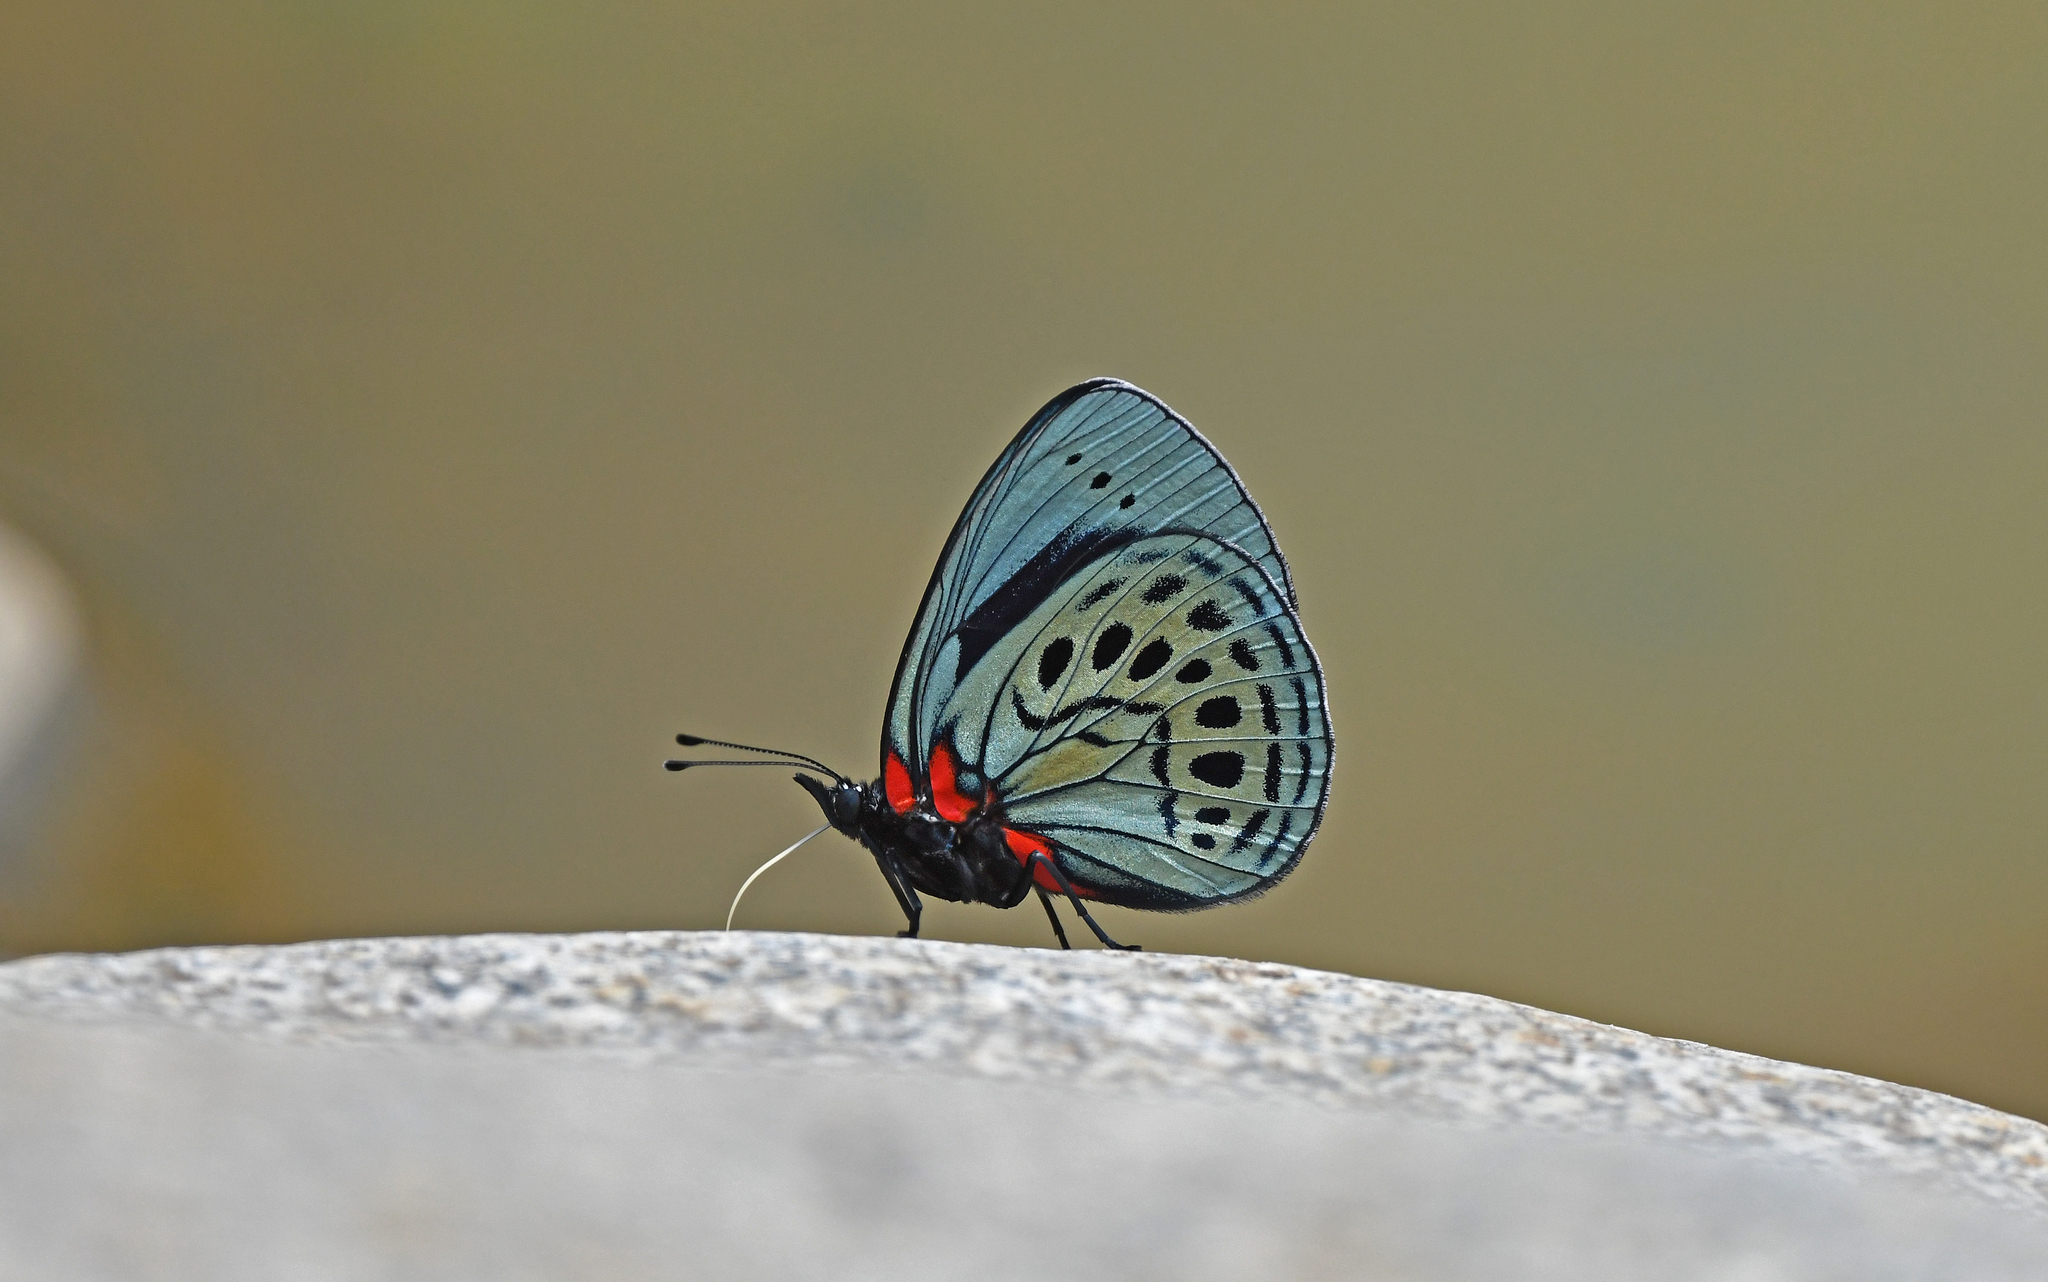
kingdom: Animalia
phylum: Arthropoda
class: Insecta
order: Lepidoptera
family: Nymphalidae
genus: Asterope
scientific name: Asterope leprieuri
